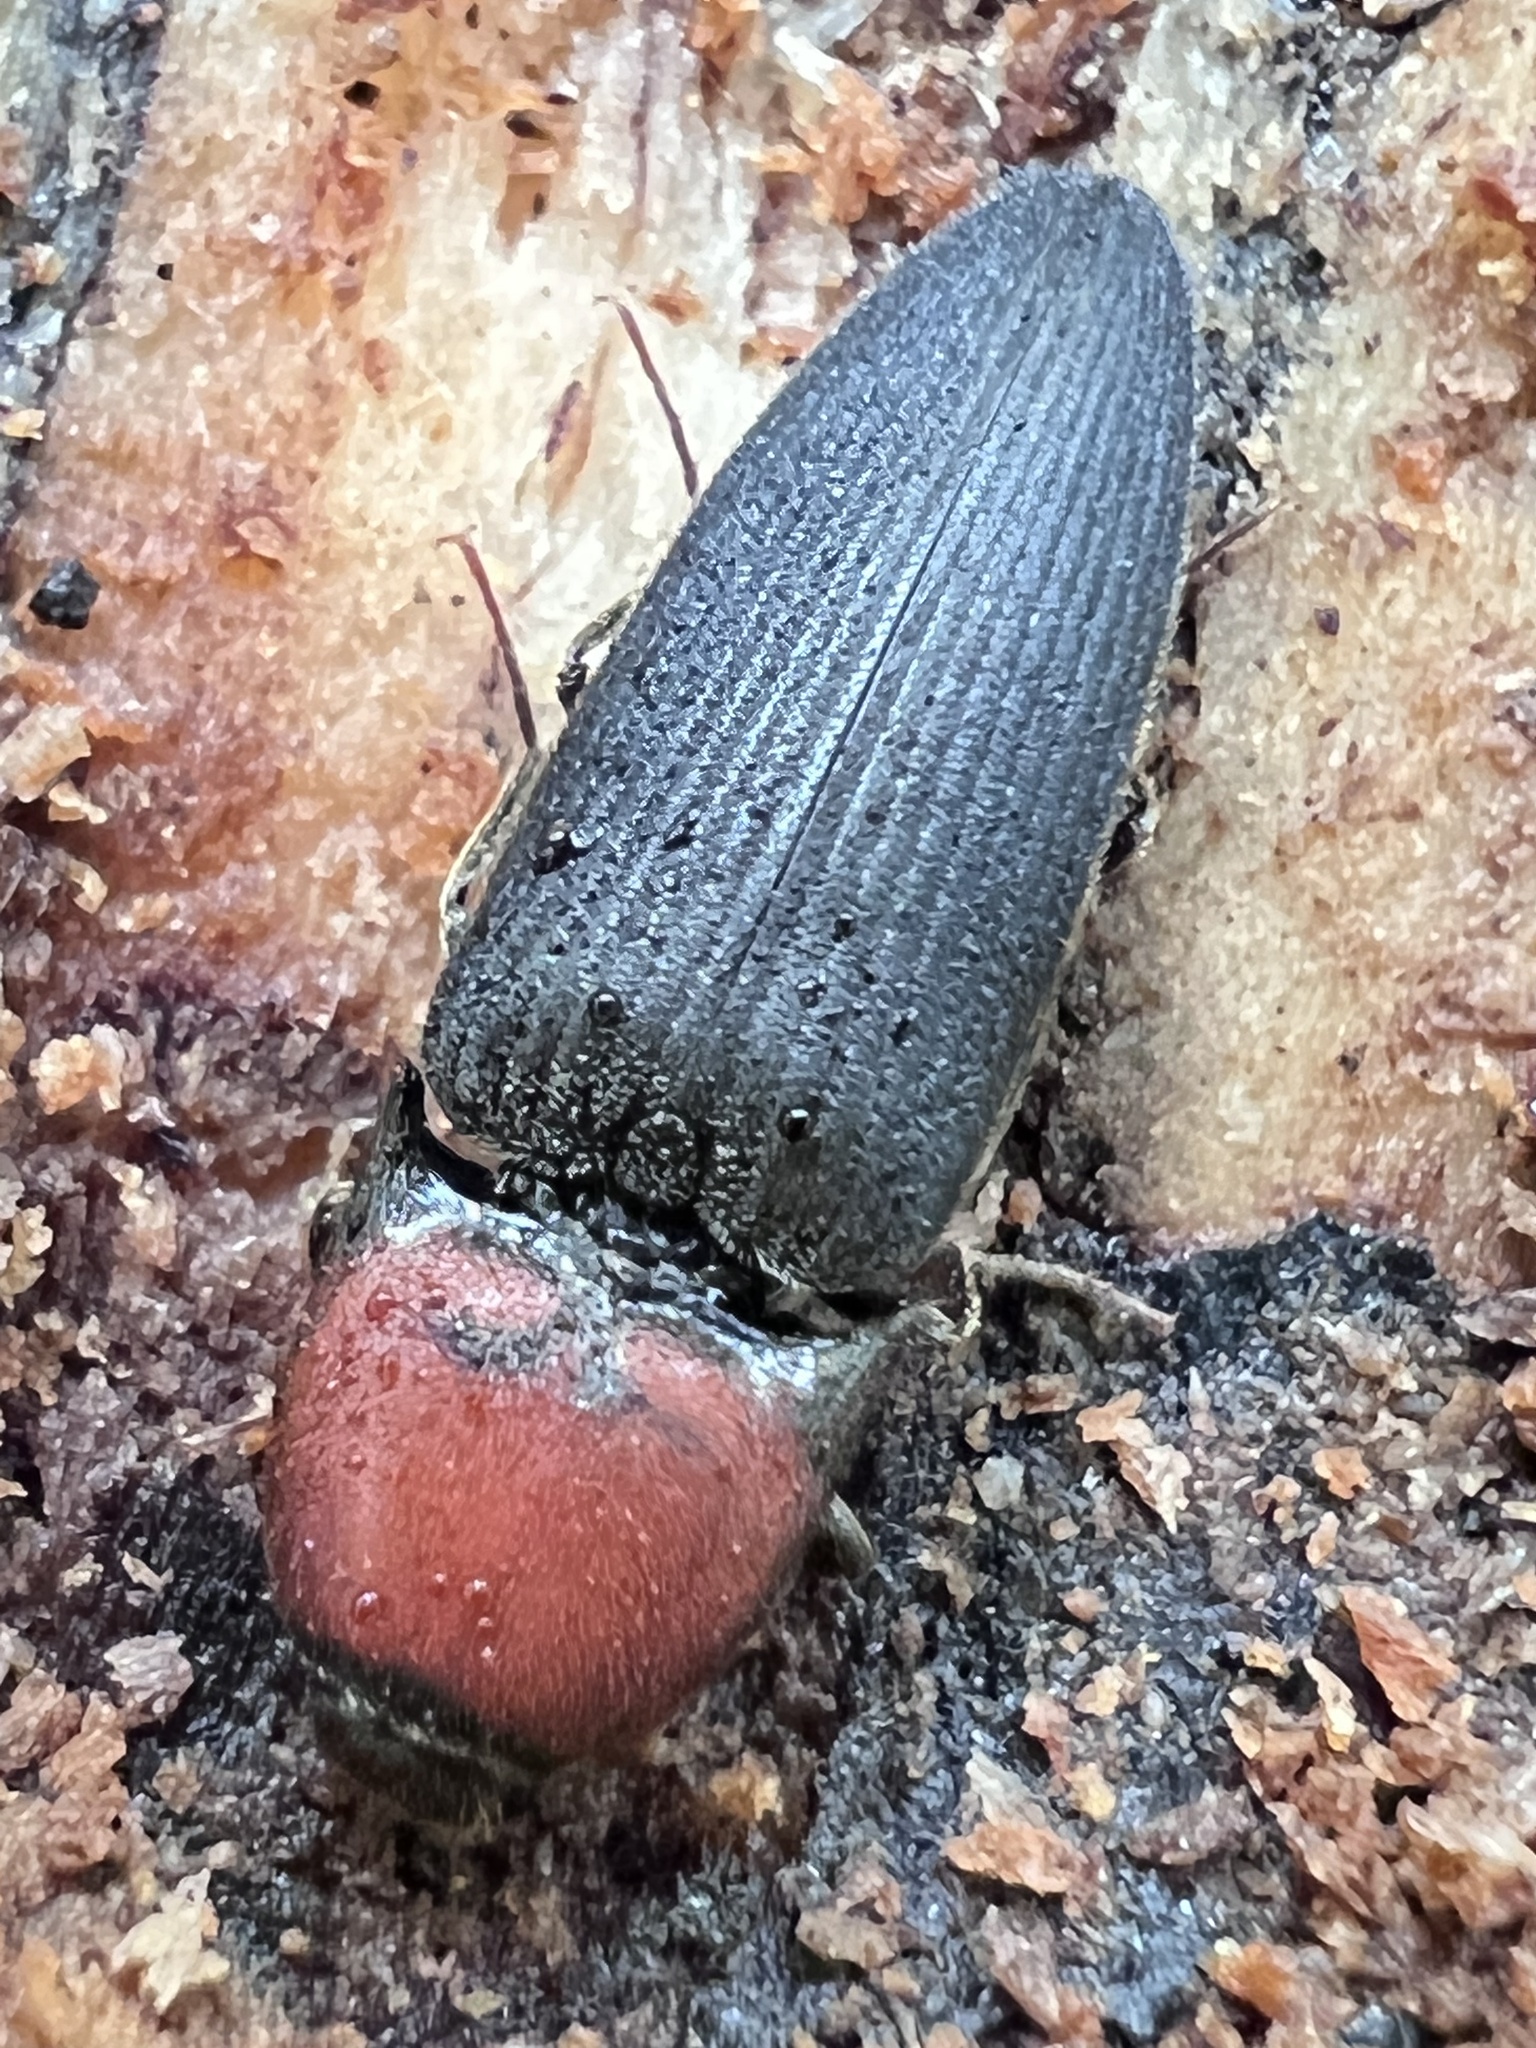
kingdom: Animalia
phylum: Arthropoda
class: Insecta
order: Coleoptera
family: Elateridae
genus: Ampedus
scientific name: Ampedus rubricollis
